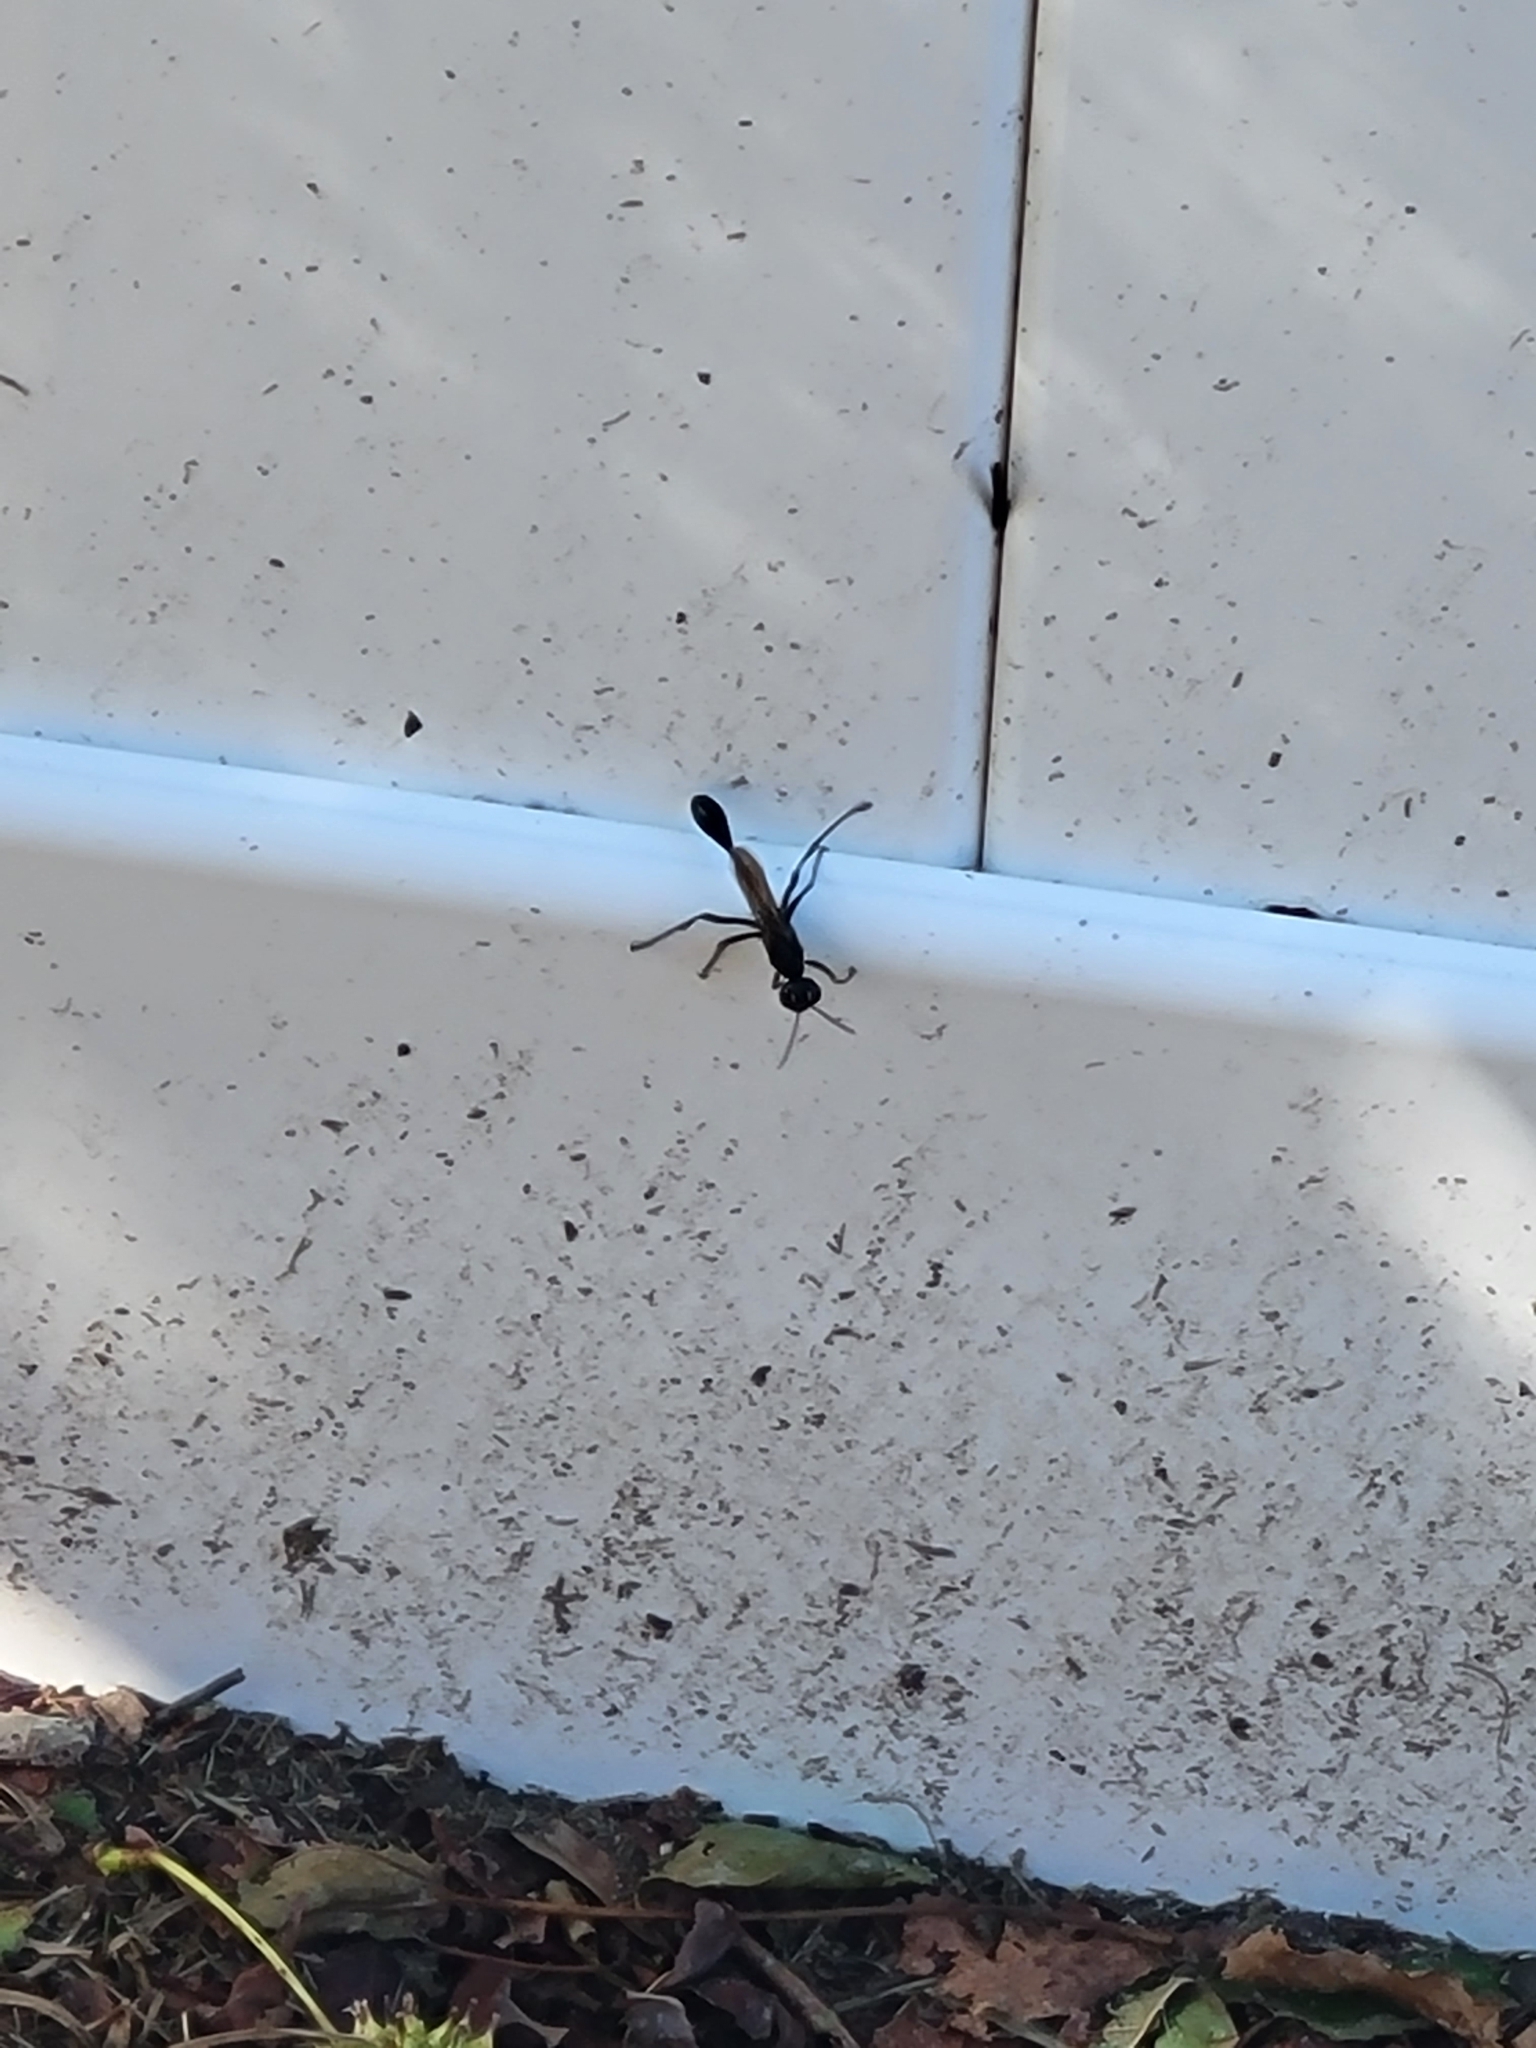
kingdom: Animalia
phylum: Arthropoda
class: Insecta
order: Hymenoptera
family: Sphecidae
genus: Eremnophila
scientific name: Eremnophila aureonotata
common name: Gold-marked thread-waisted wasp
